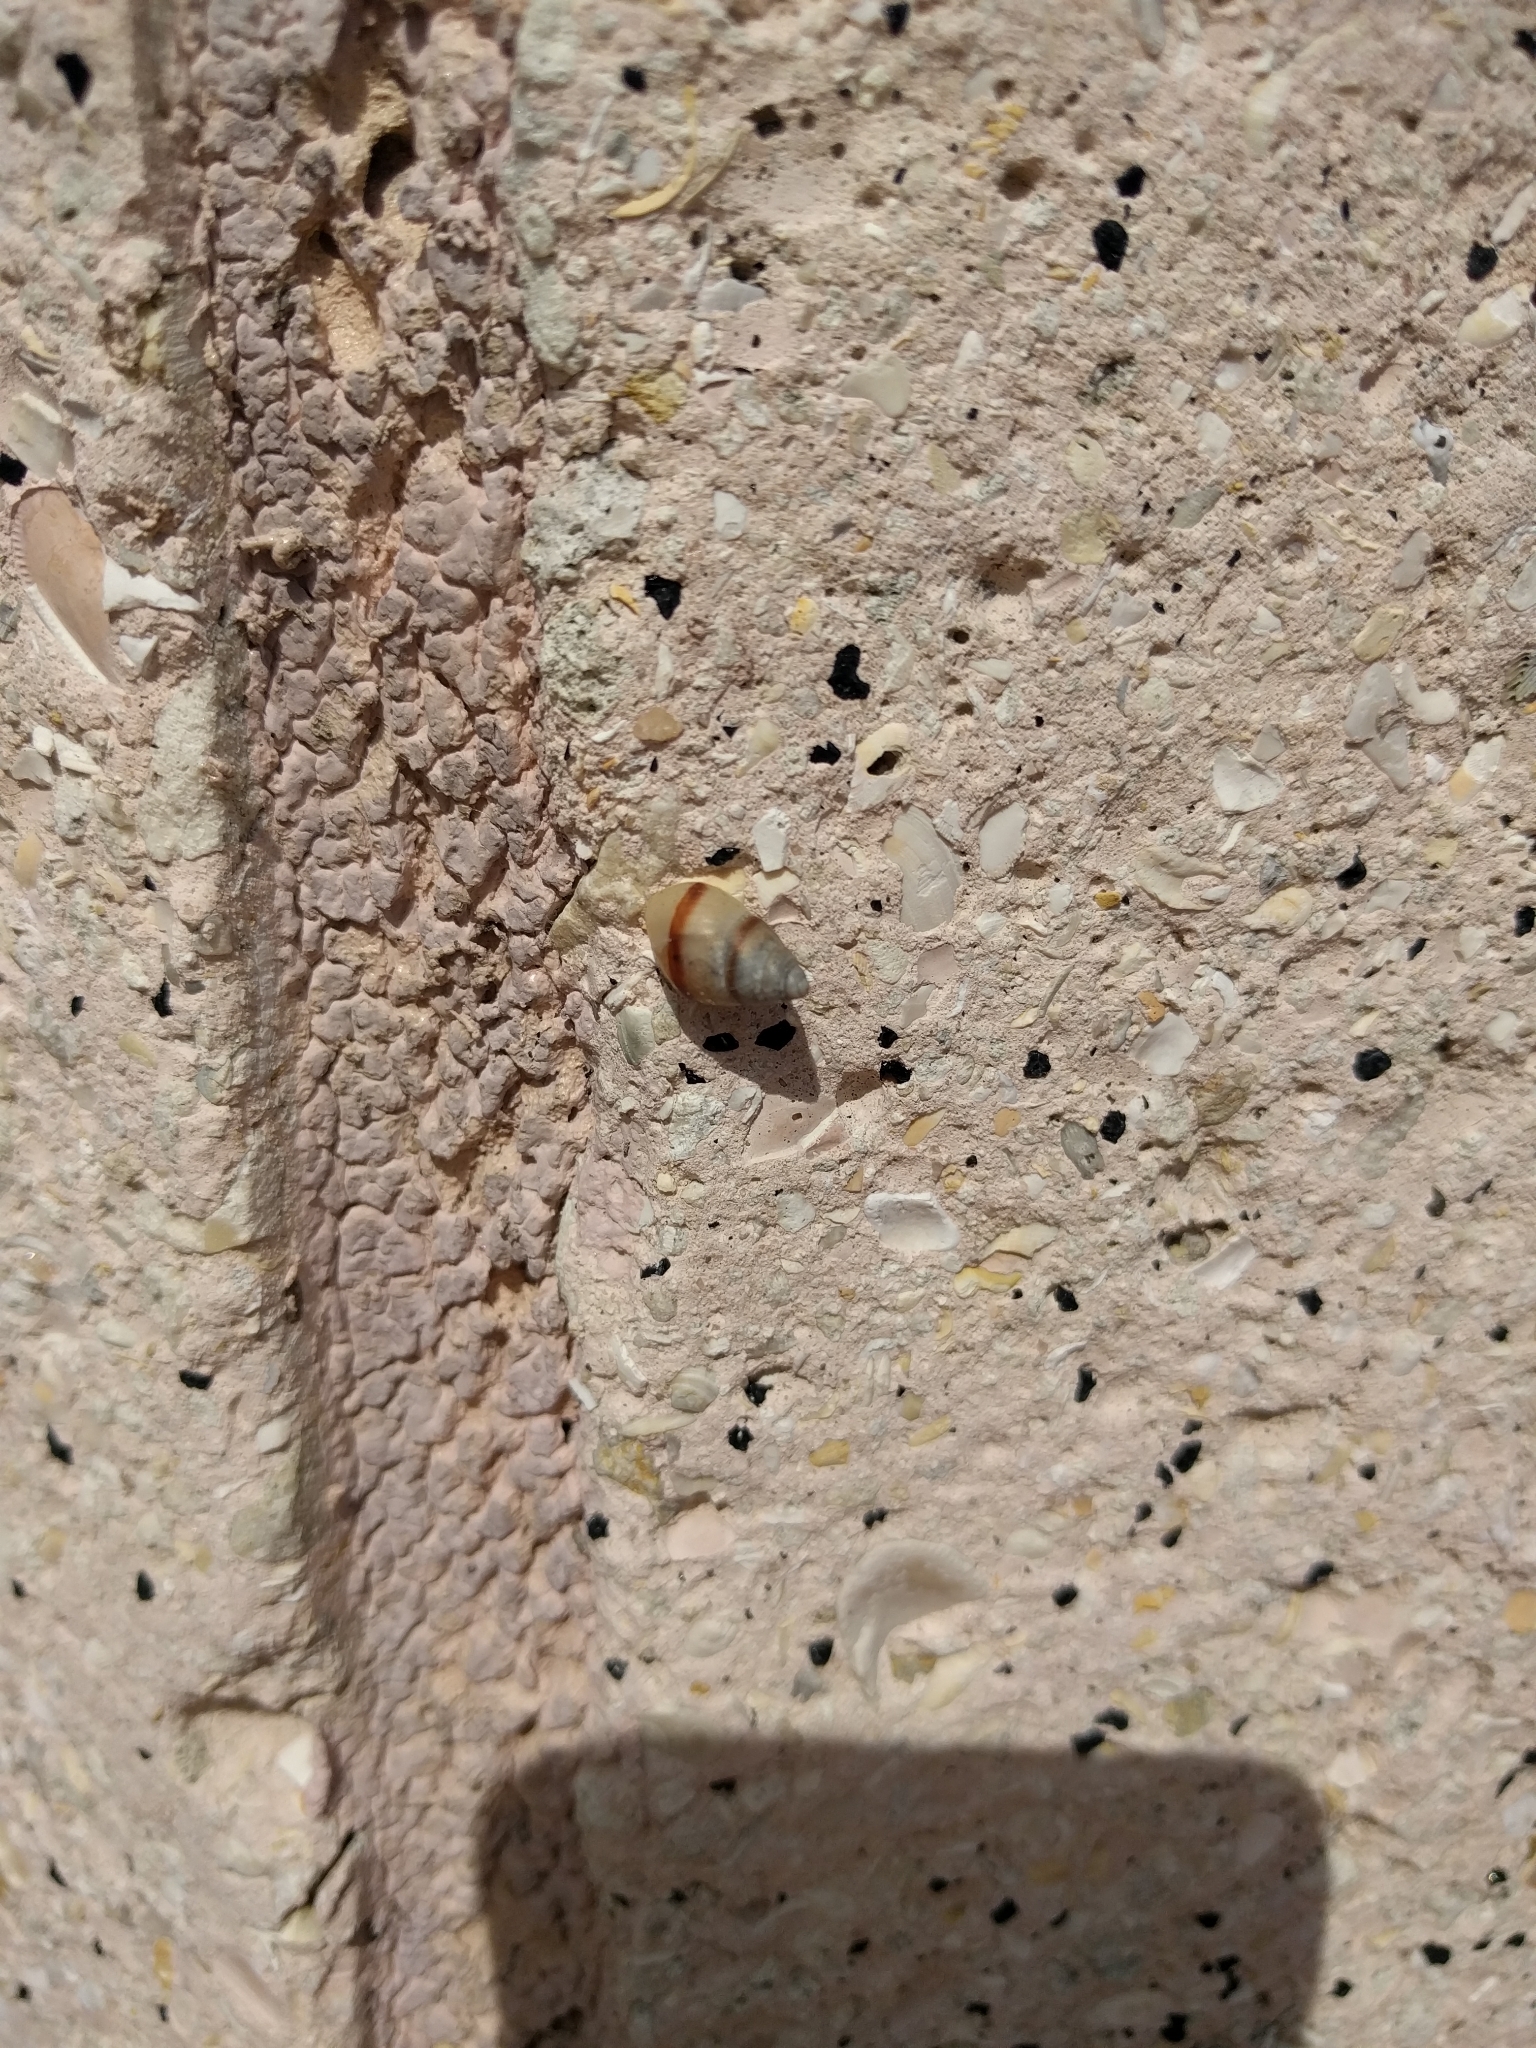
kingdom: Animalia
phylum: Mollusca
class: Gastropoda
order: Stylommatophora
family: Bulimulidae
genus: Bulimulus
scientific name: Bulimulus guadalupensis
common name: West indian bulimulus
